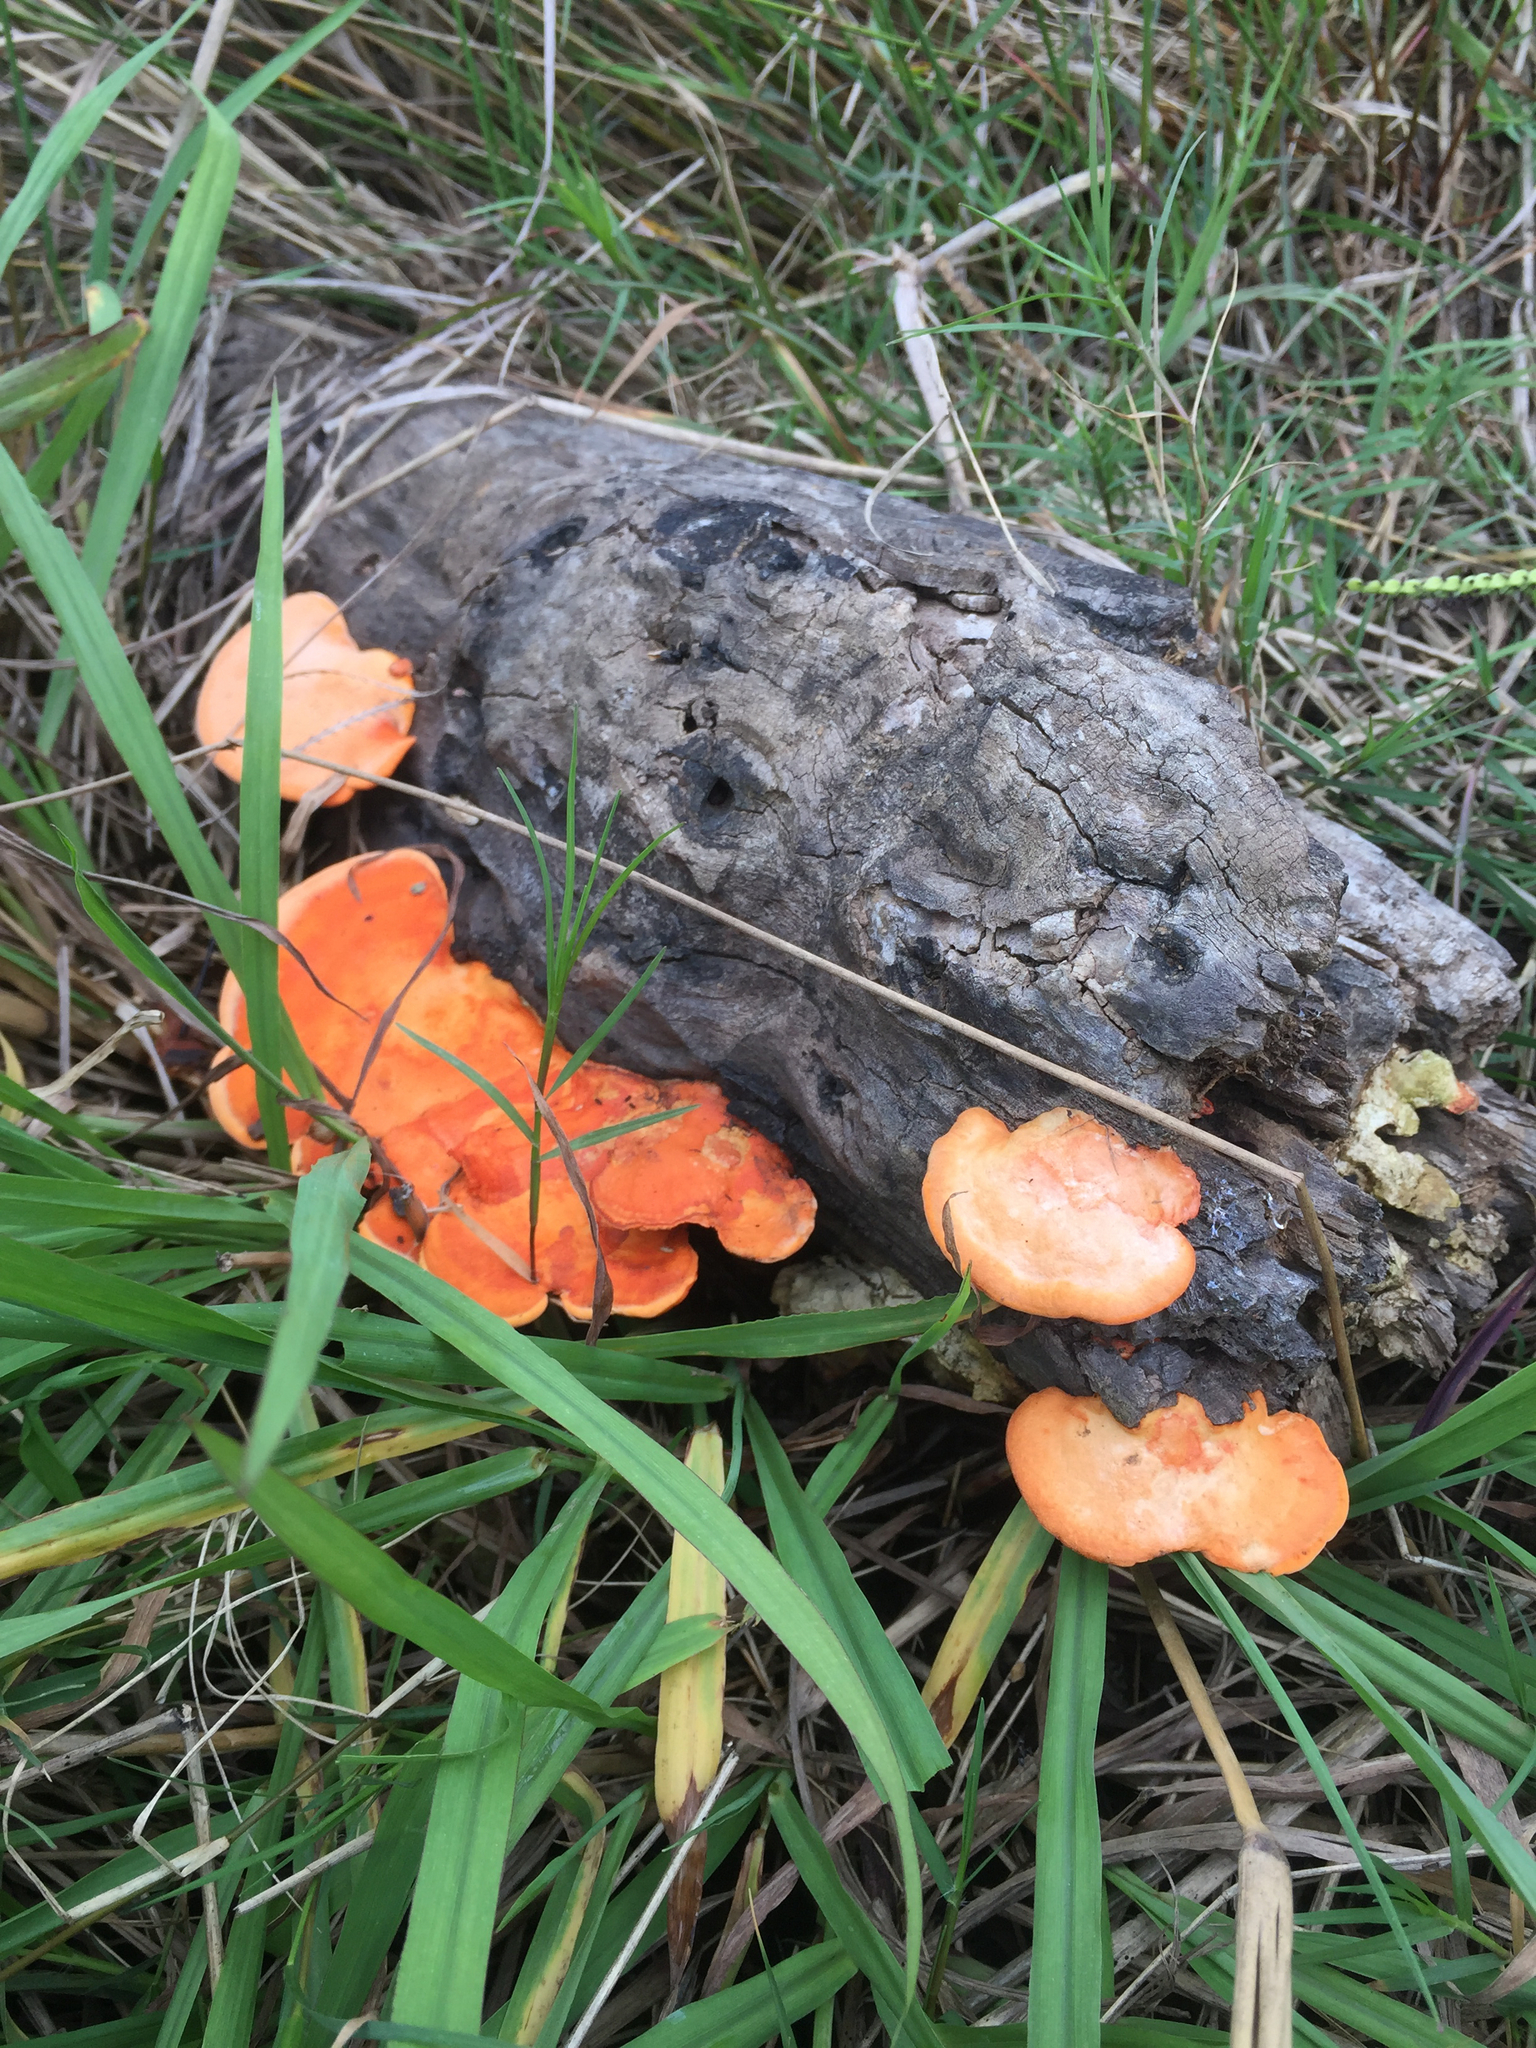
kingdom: Fungi
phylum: Basidiomycota
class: Agaricomycetes
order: Polyporales
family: Polyporaceae
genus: Trametes
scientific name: Trametes coccinea
